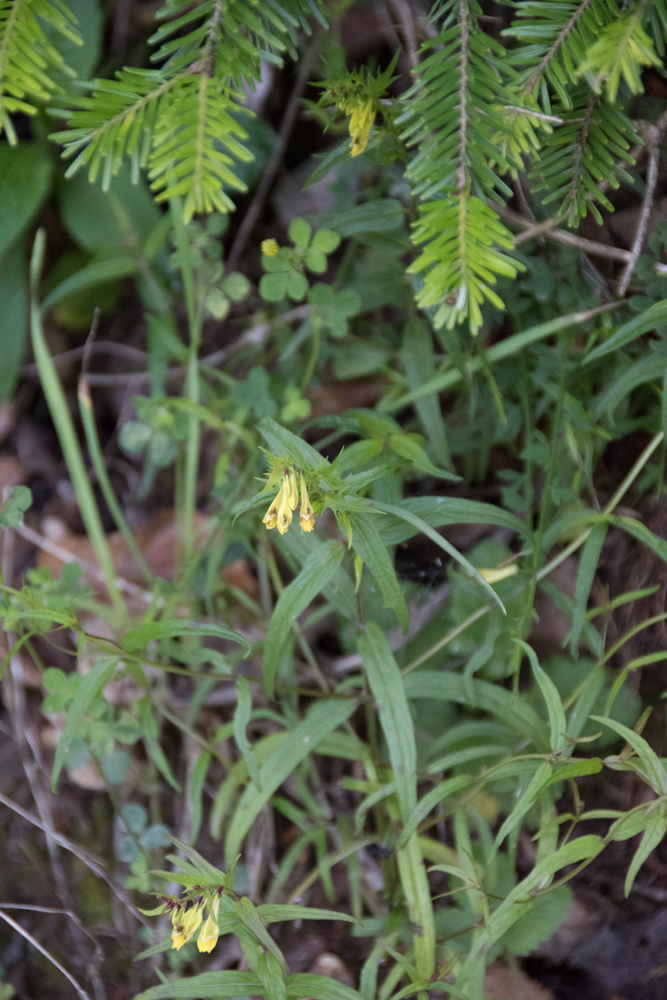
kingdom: Plantae
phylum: Tracheophyta
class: Magnoliopsida
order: Lamiales
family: Orobanchaceae
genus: Melampyrum
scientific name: Melampyrum pratense
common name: Common cow-wheat
